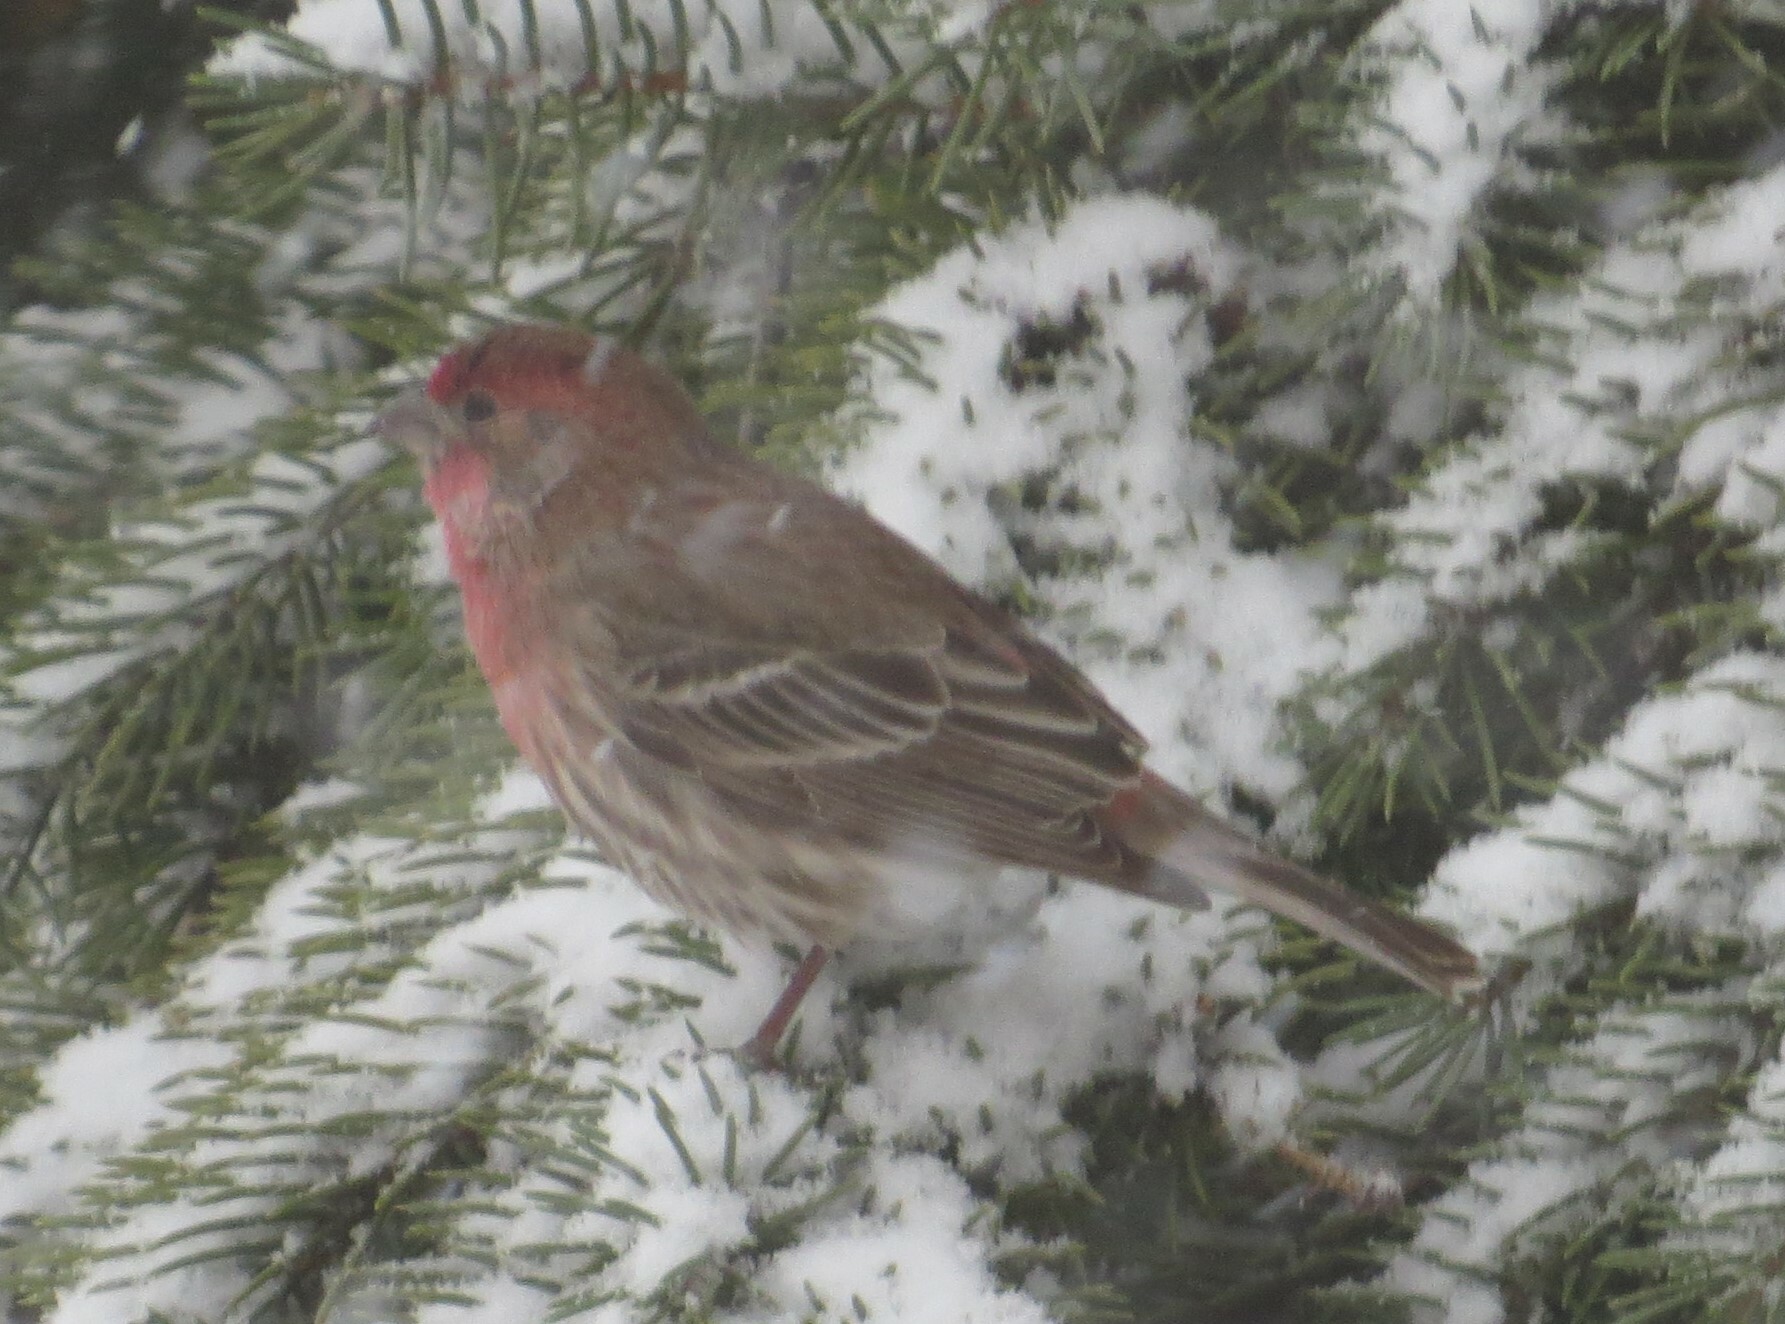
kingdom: Animalia
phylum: Chordata
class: Aves
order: Passeriformes
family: Fringillidae
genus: Haemorhous
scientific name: Haemorhous mexicanus
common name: House finch
